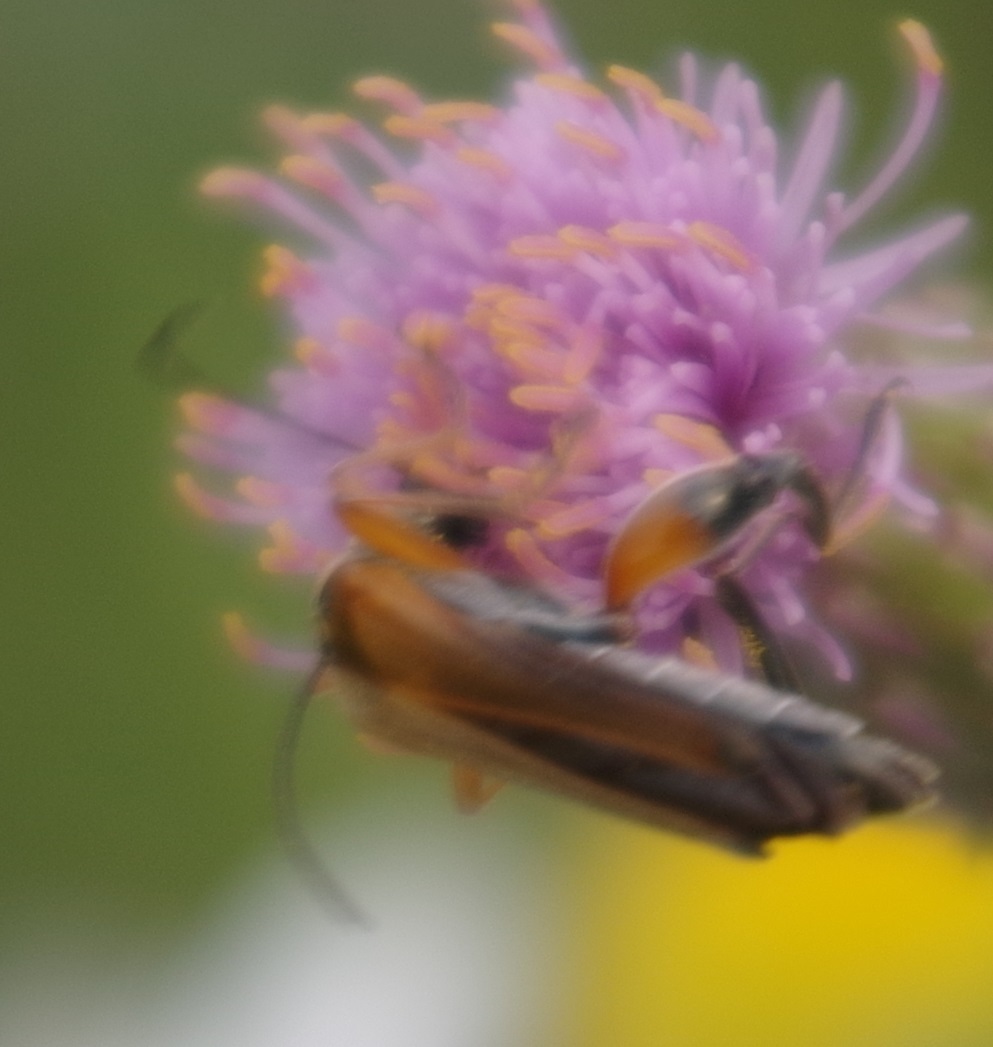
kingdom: Animalia
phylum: Arthropoda
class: Insecta
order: Coleoptera
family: Oedemeridae
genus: Oedemera
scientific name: Oedemera podagrariae
